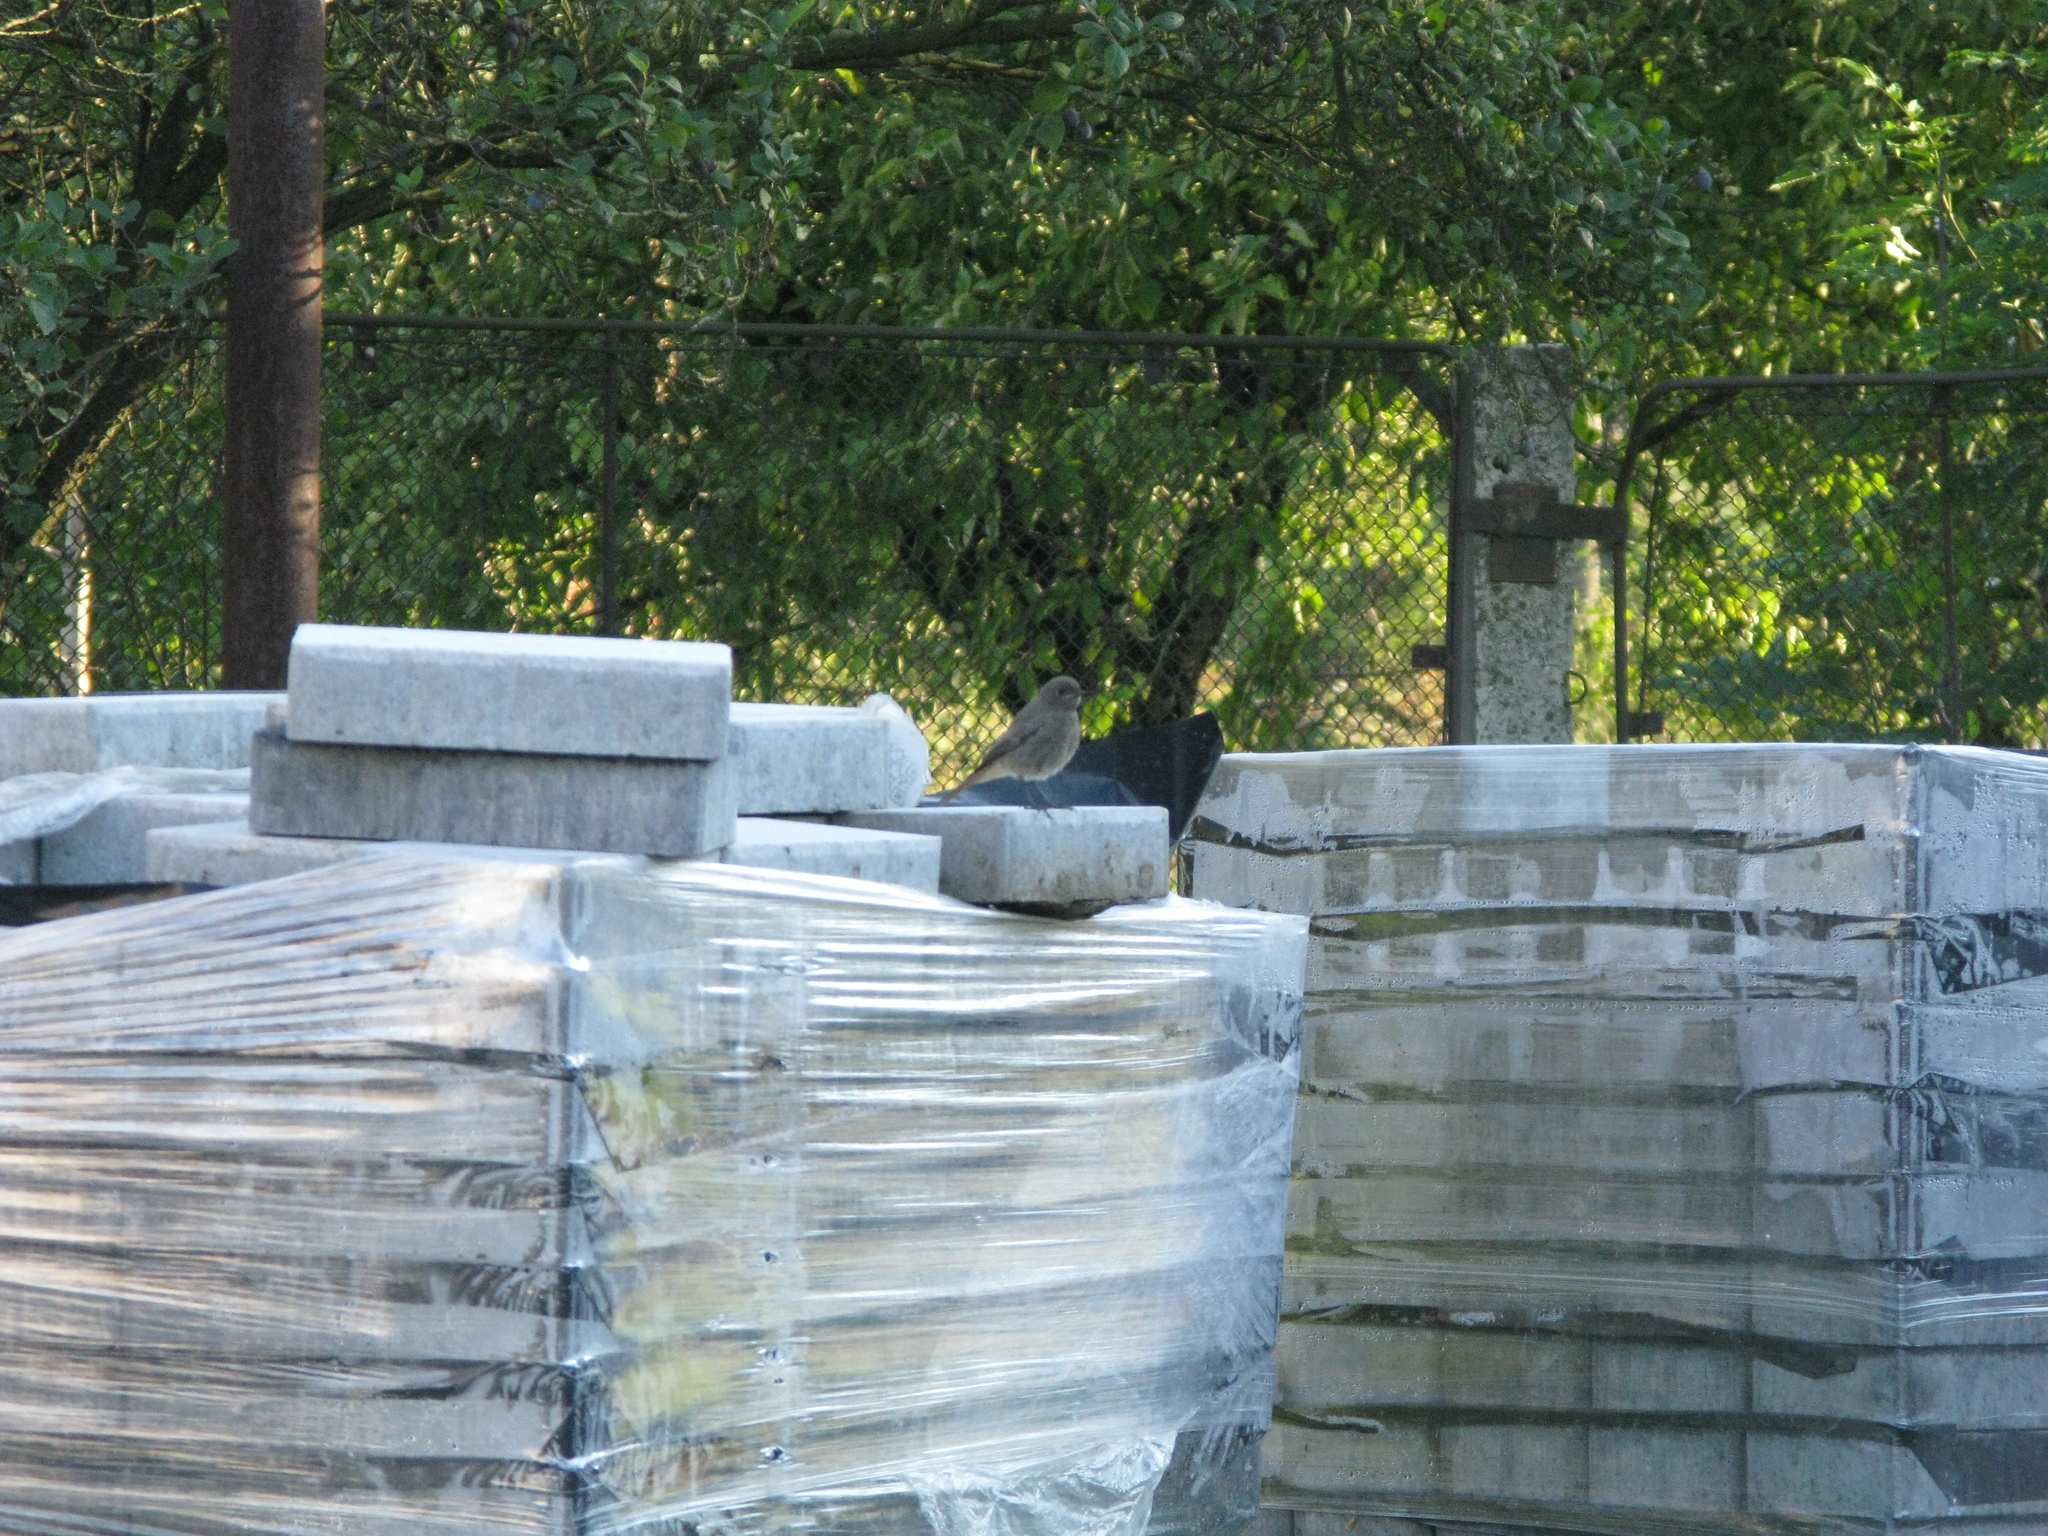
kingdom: Animalia
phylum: Chordata
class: Aves
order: Passeriformes
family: Muscicapidae
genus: Phoenicurus
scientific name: Phoenicurus ochruros
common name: Black redstart
